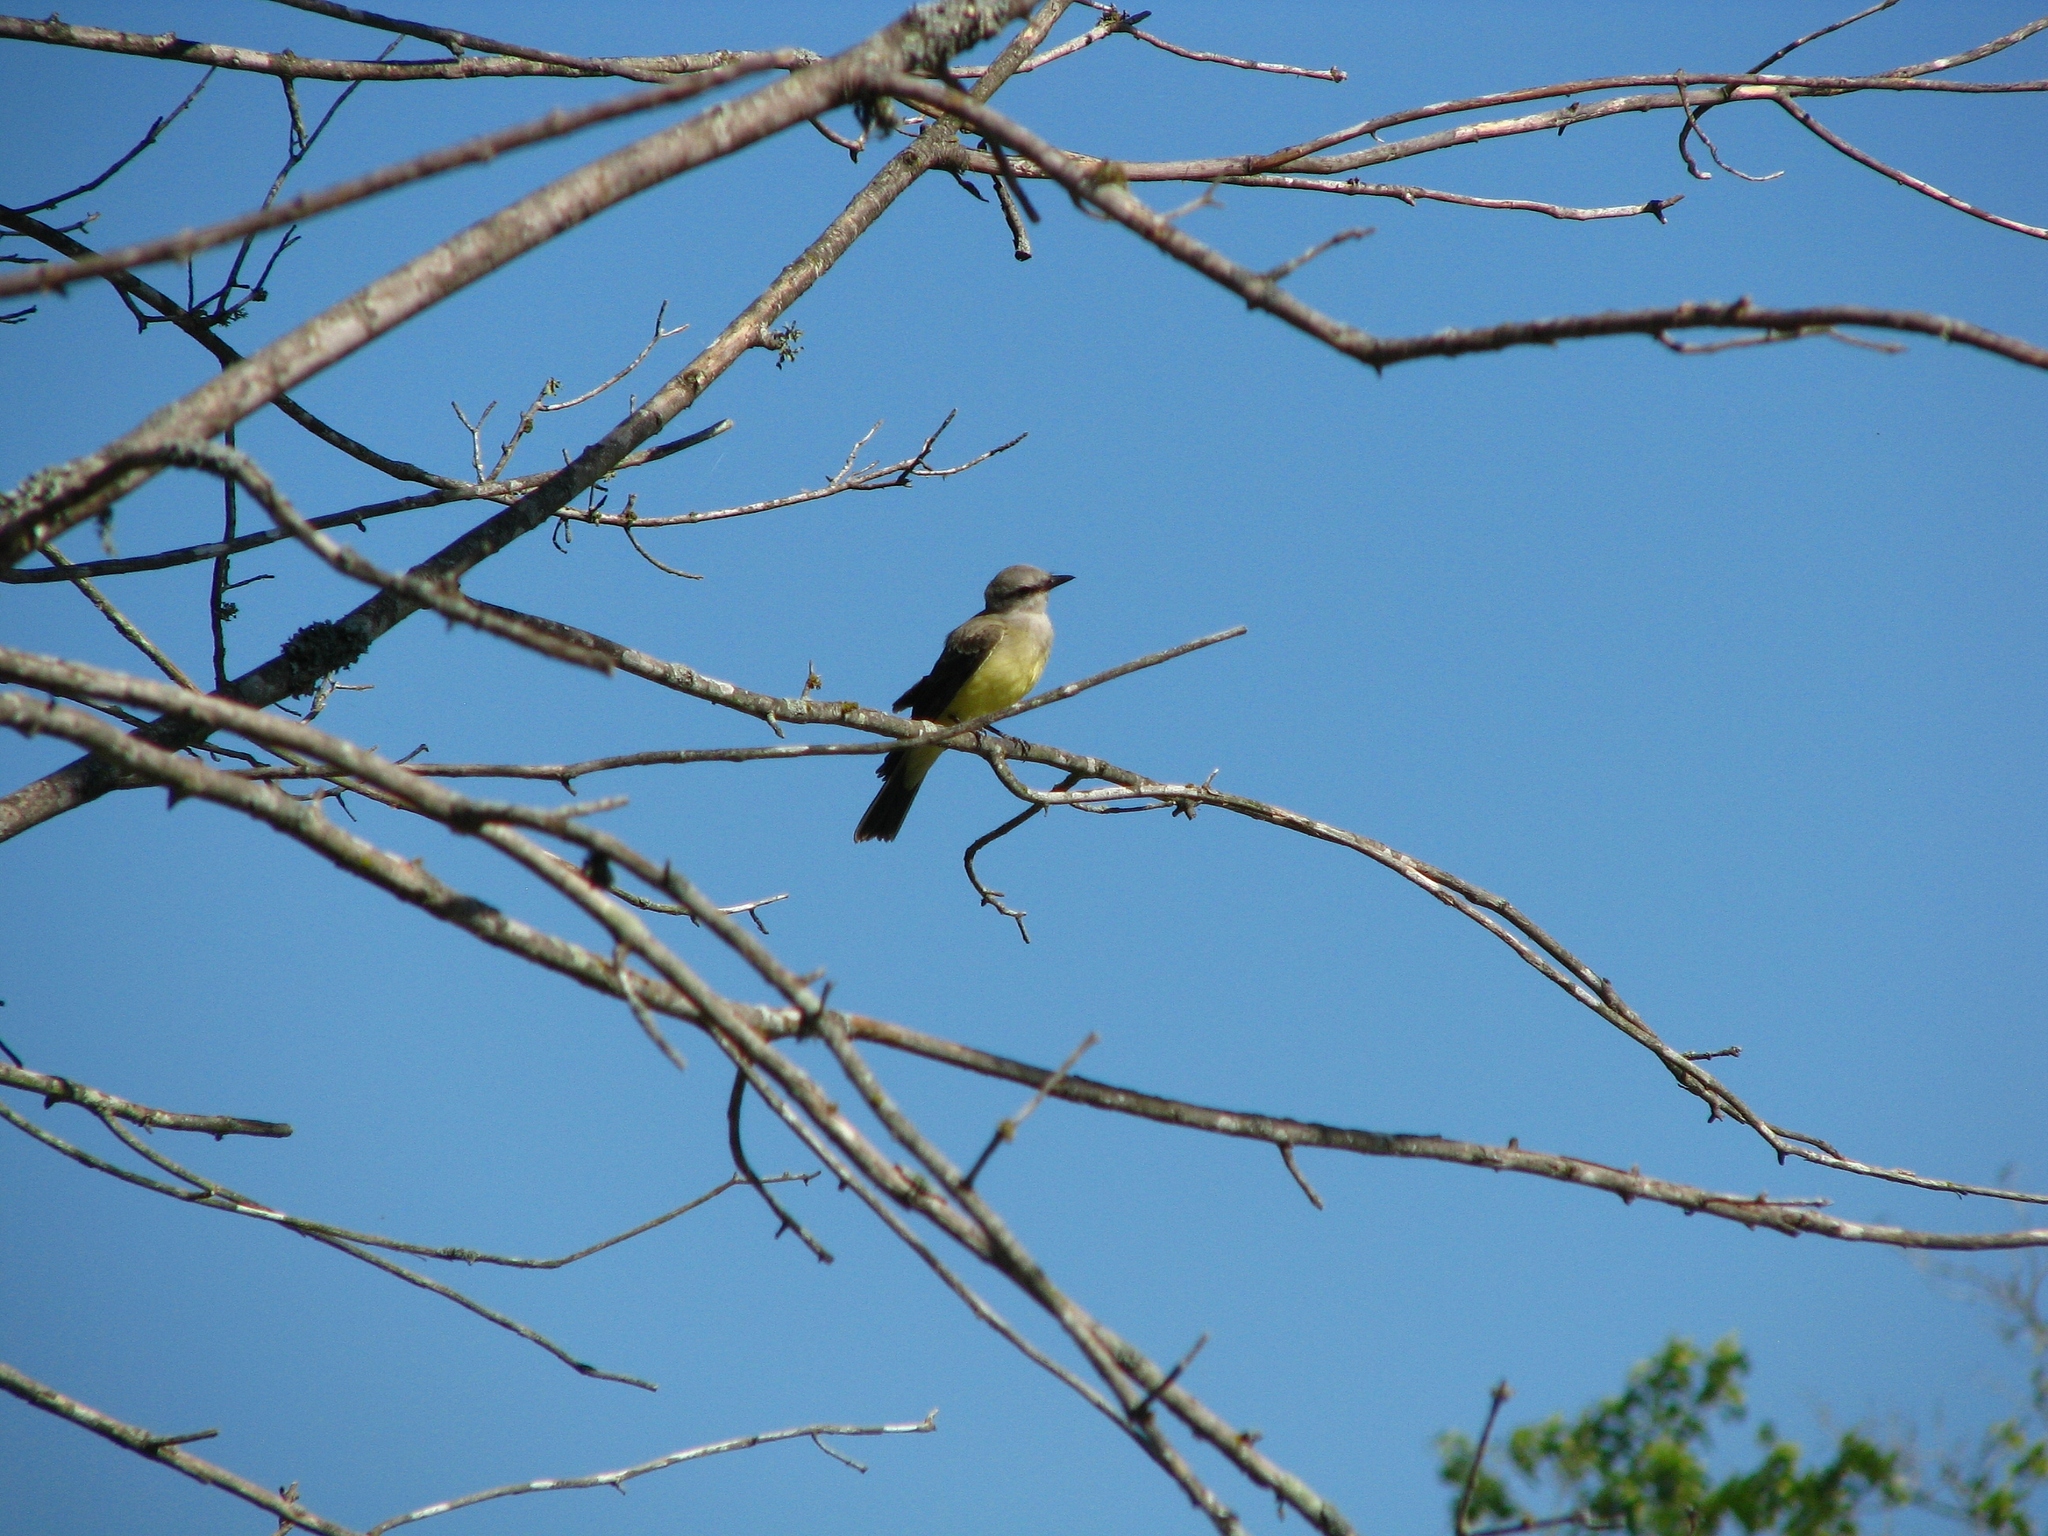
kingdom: Animalia
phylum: Chordata
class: Aves
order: Passeriformes
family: Tyrannidae
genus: Tyrannus
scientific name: Tyrannus verticalis
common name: Western kingbird
